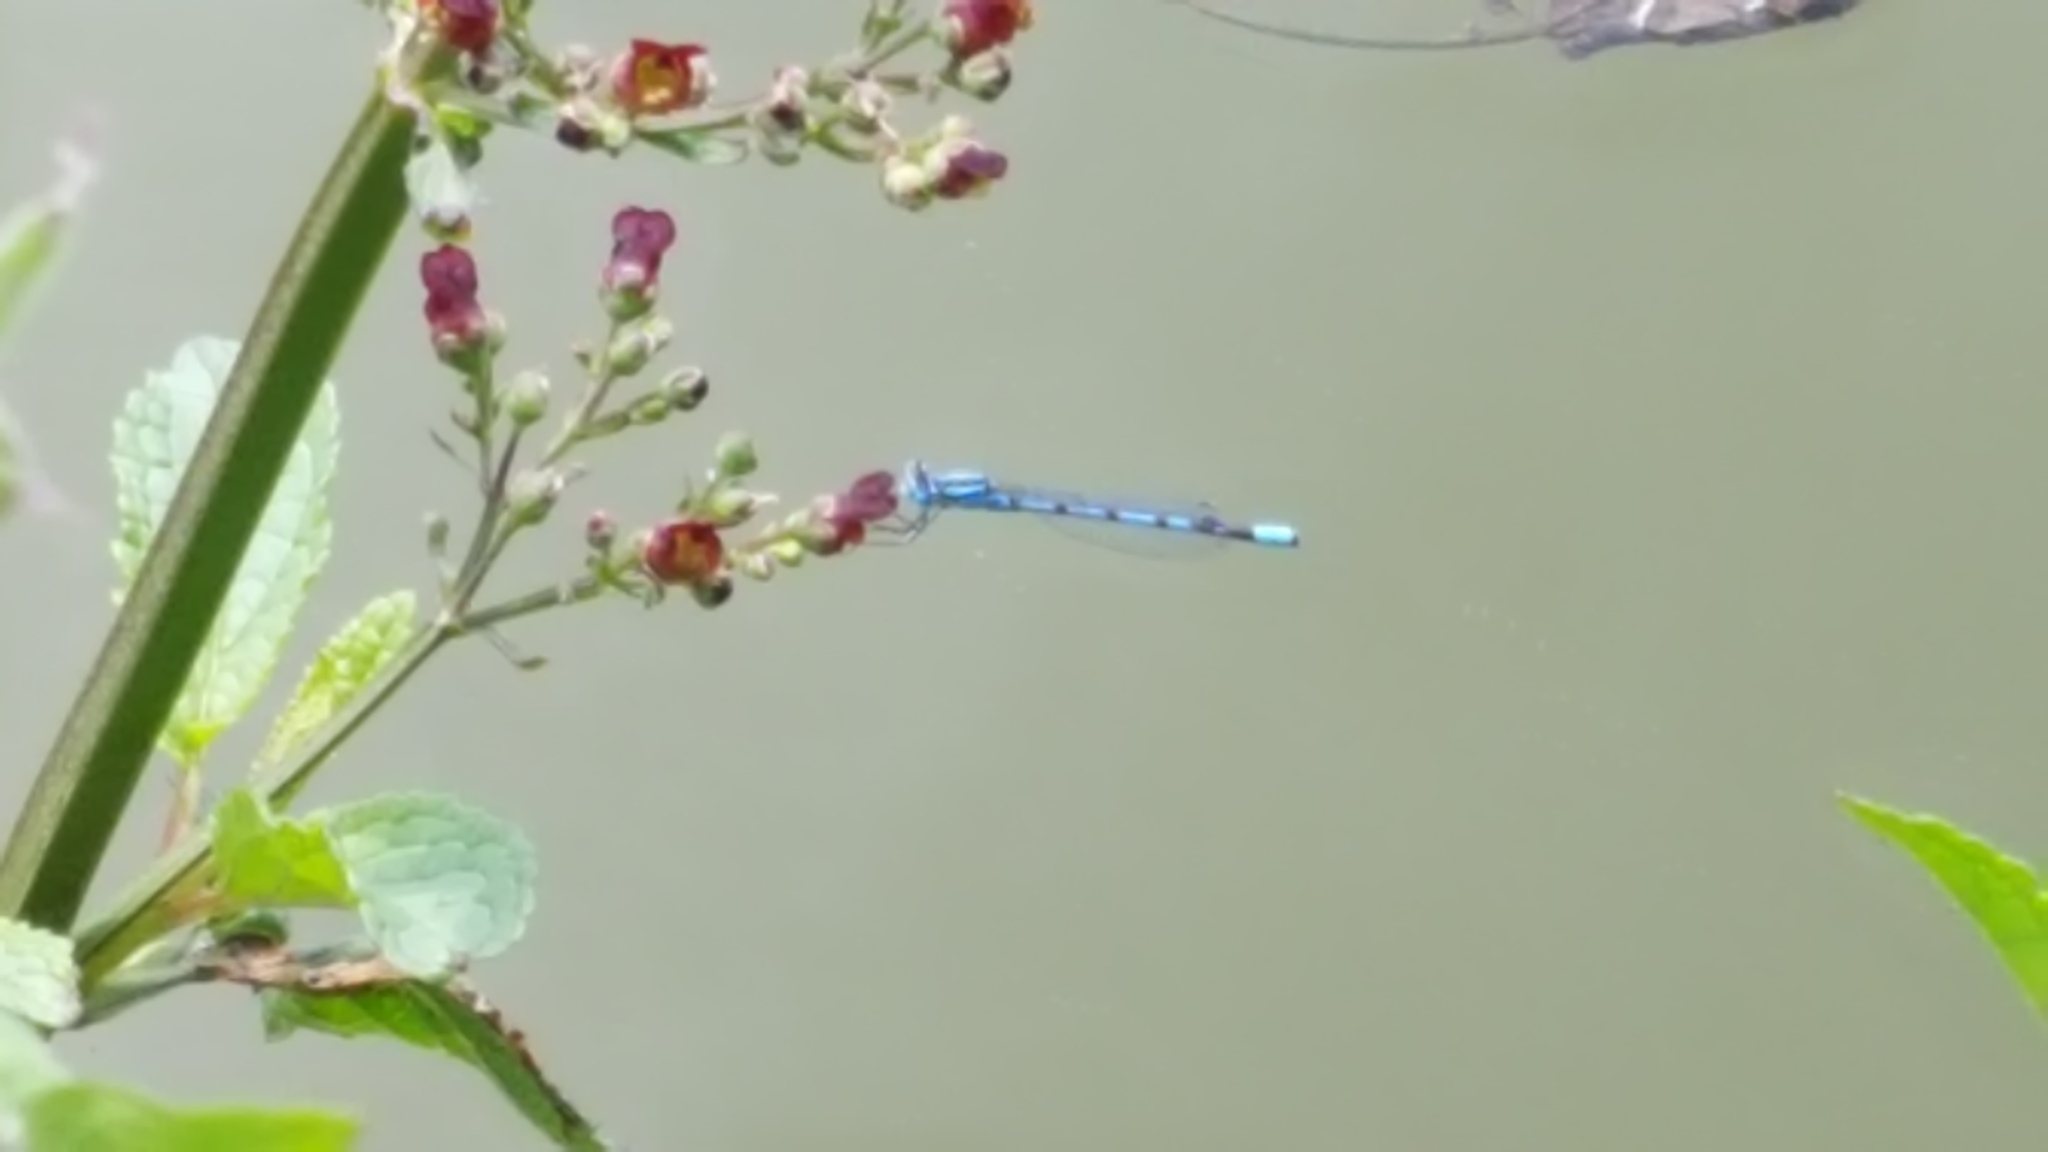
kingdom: Animalia
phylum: Arthropoda
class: Insecta
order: Odonata
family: Coenagrionidae
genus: Enallagma
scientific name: Enallagma cyathigerum
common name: Common blue damselfly
